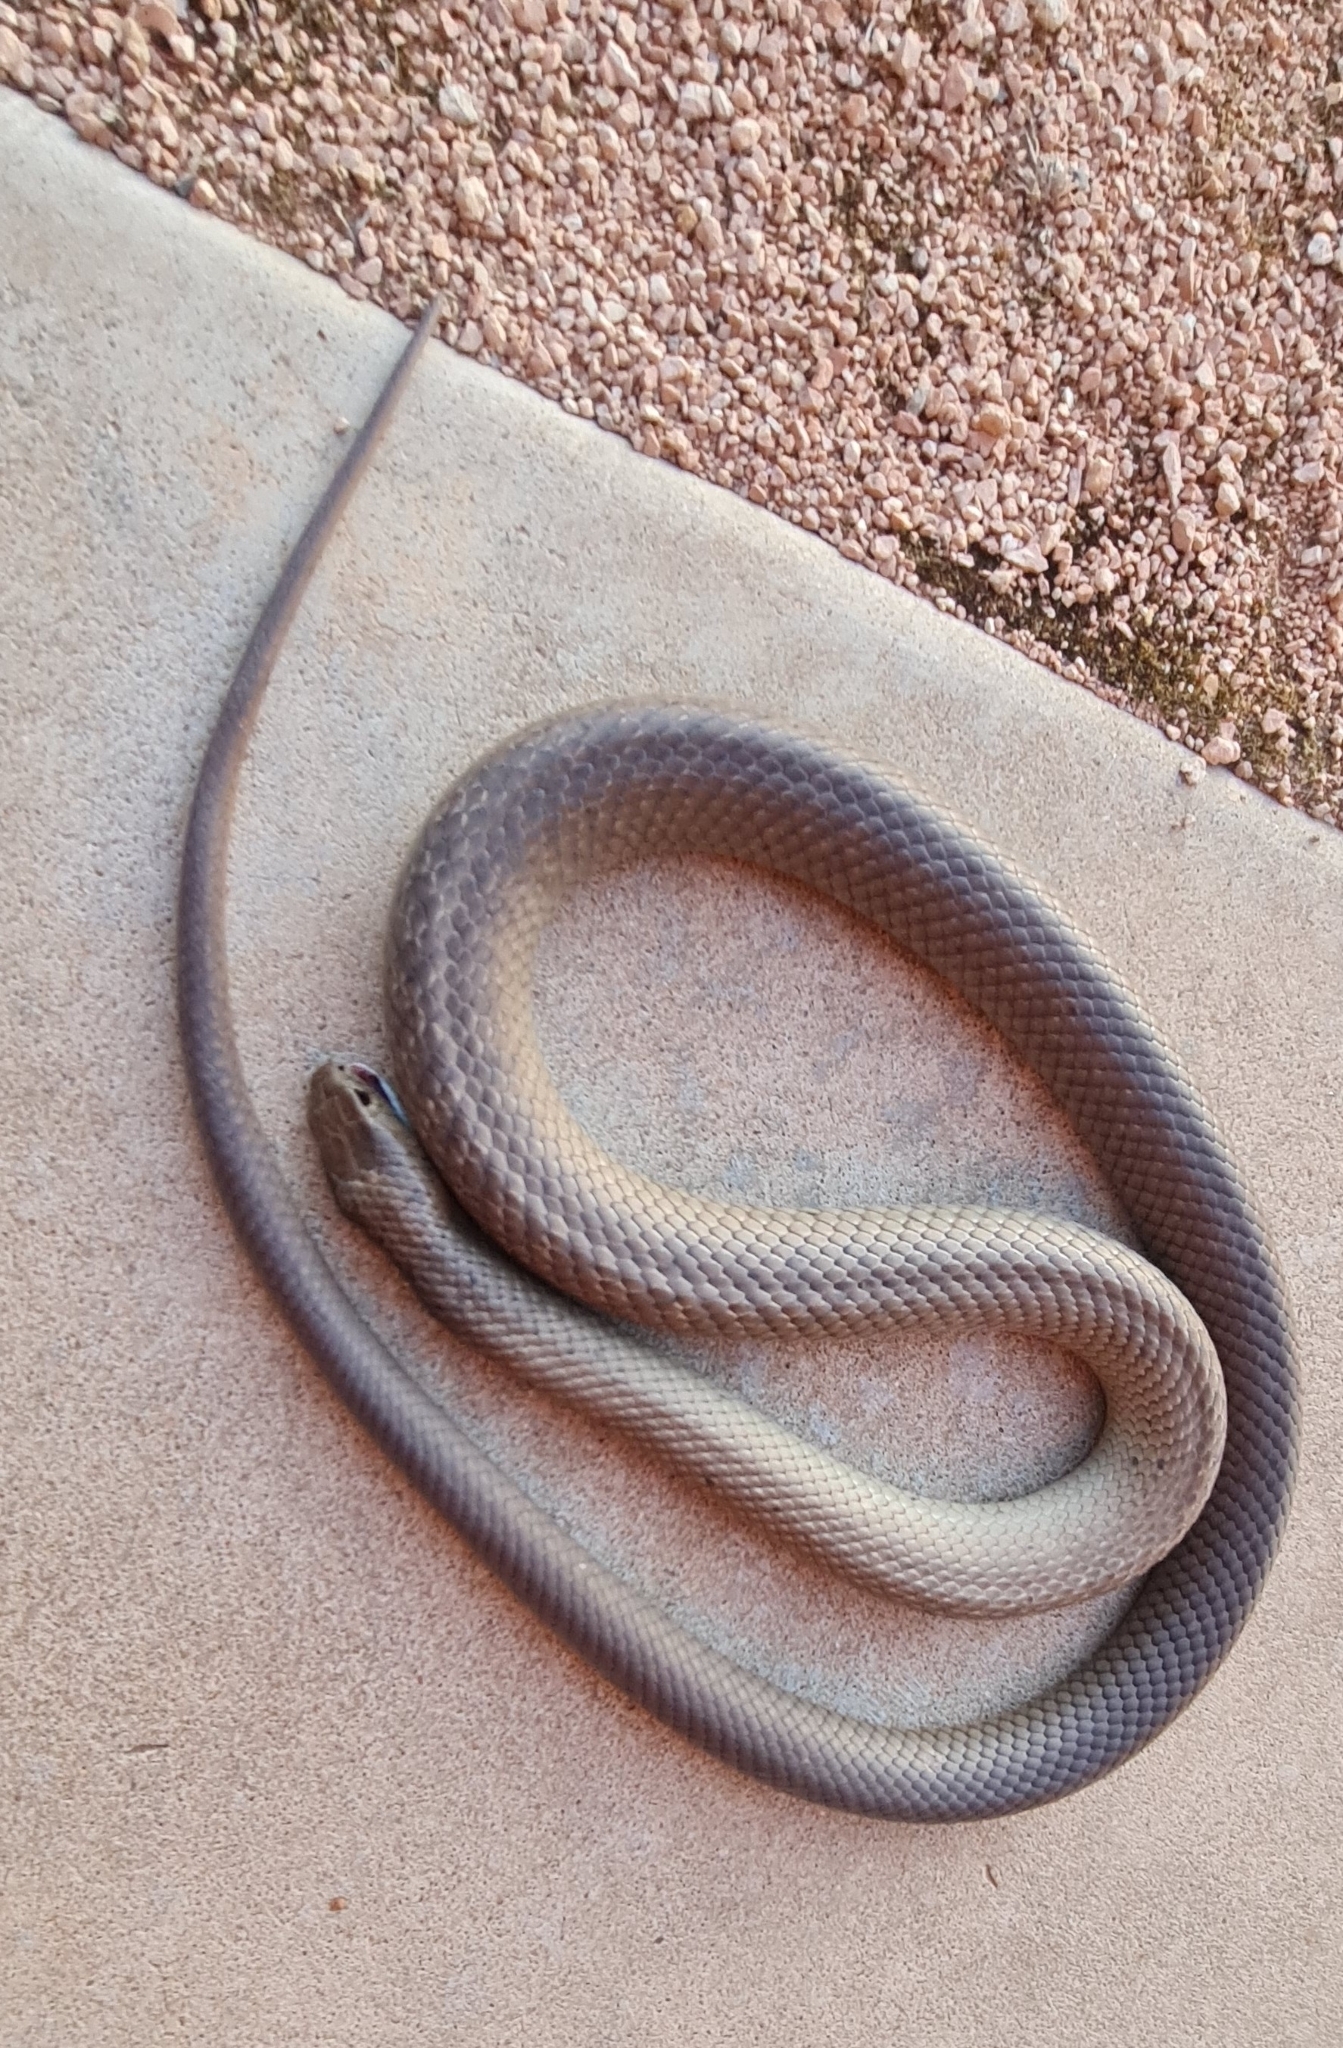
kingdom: Animalia
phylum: Chordata
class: Squamata
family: Elapidae
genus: Pseudonaja
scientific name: Pseudonaja textilis
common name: Eastern brown snake
